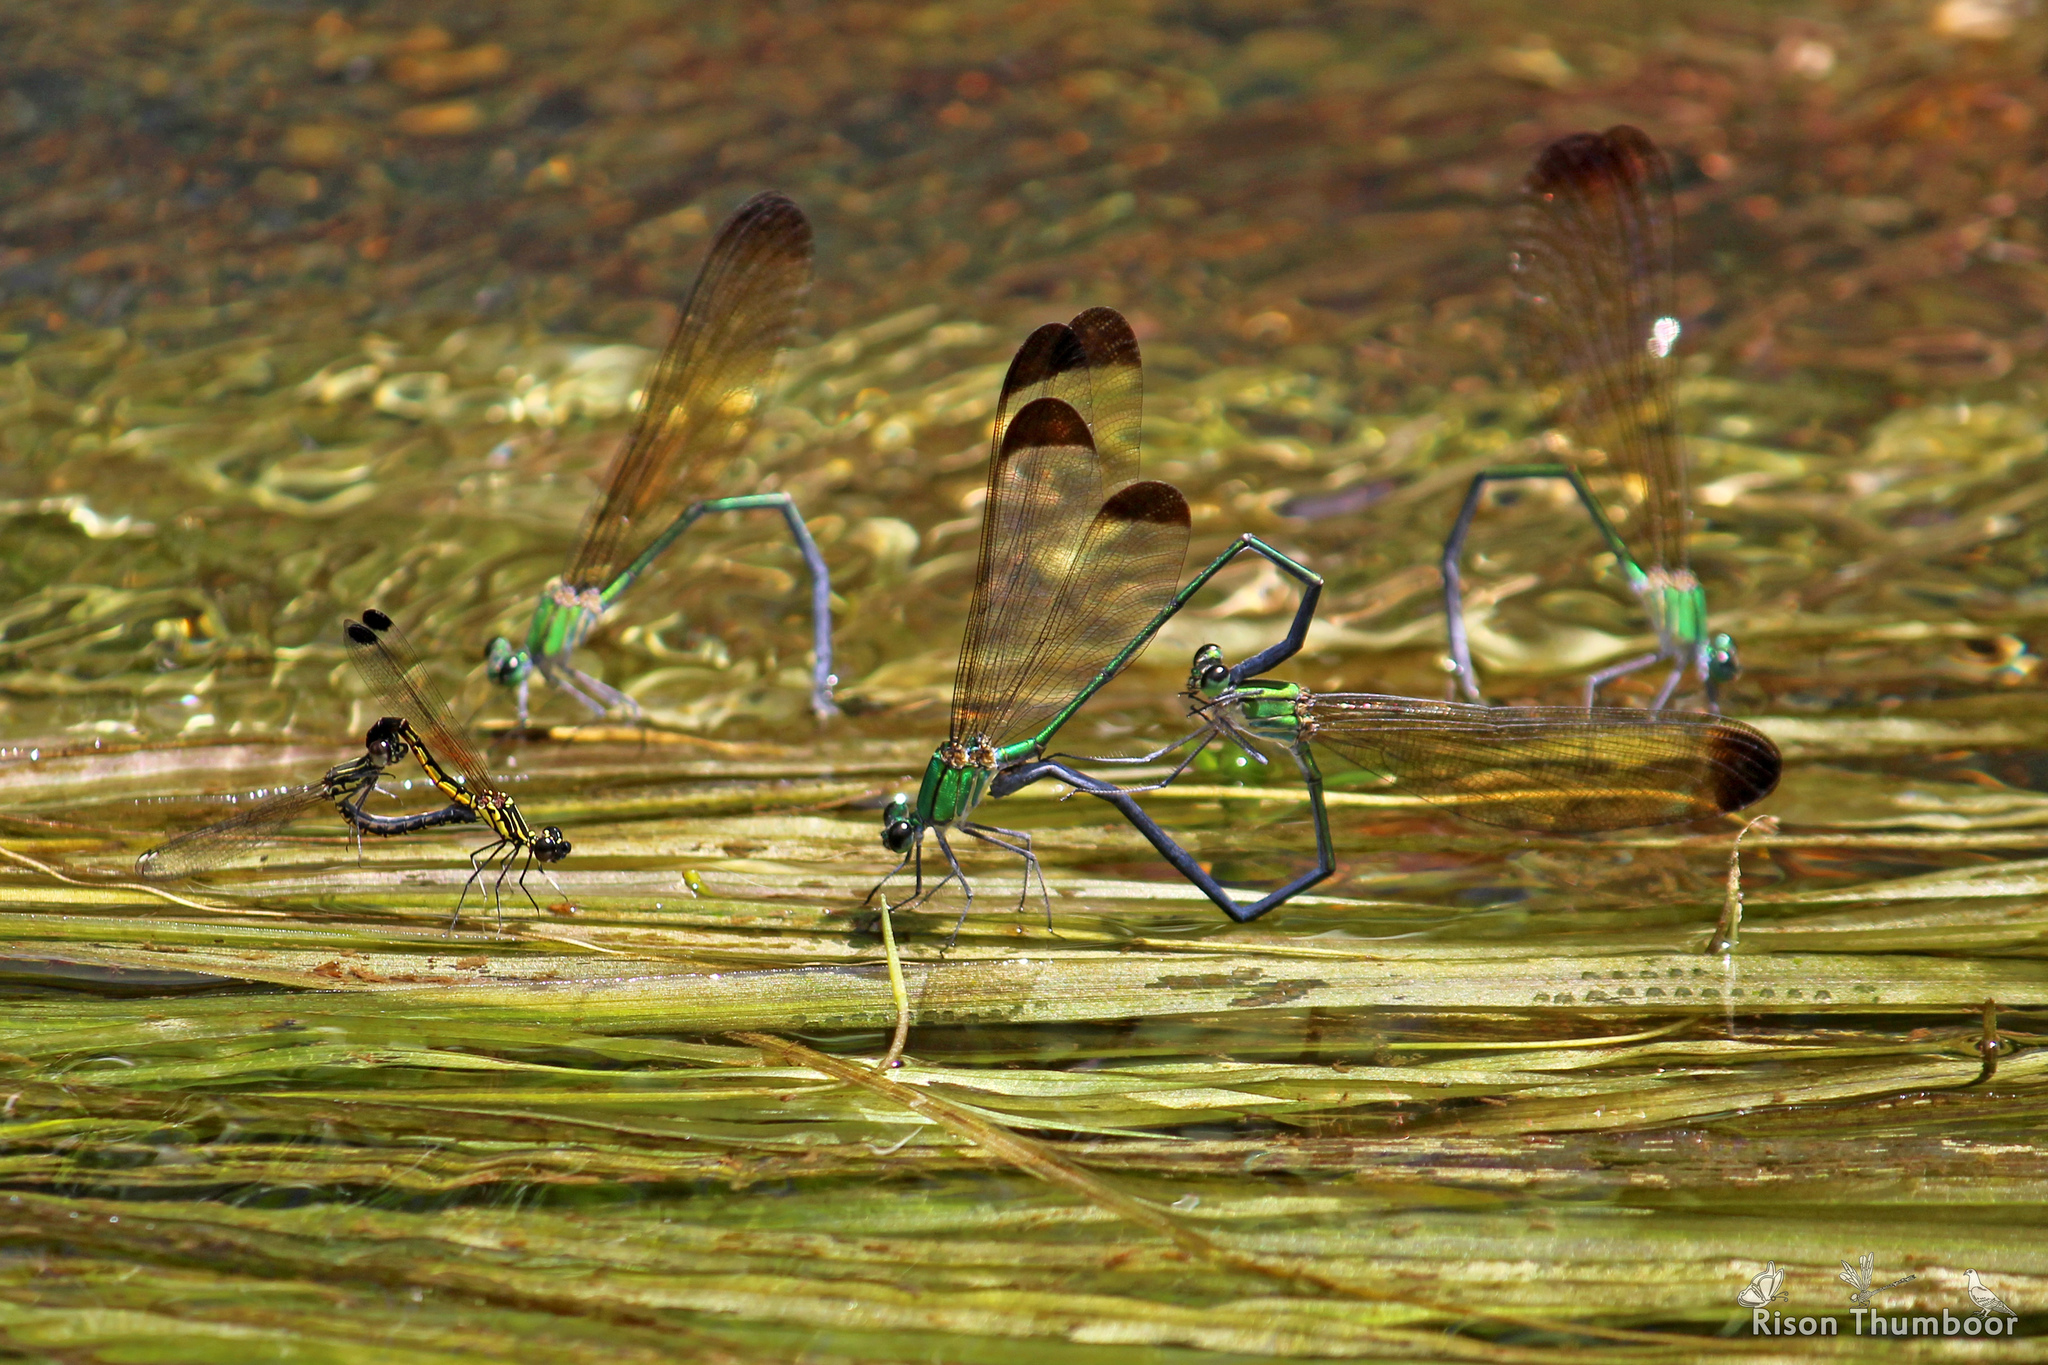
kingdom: Animalia
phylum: Arthropoda
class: Insecta
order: Odonata
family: Calopterygidae
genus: Vestalis
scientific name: Vestalis apicalis
